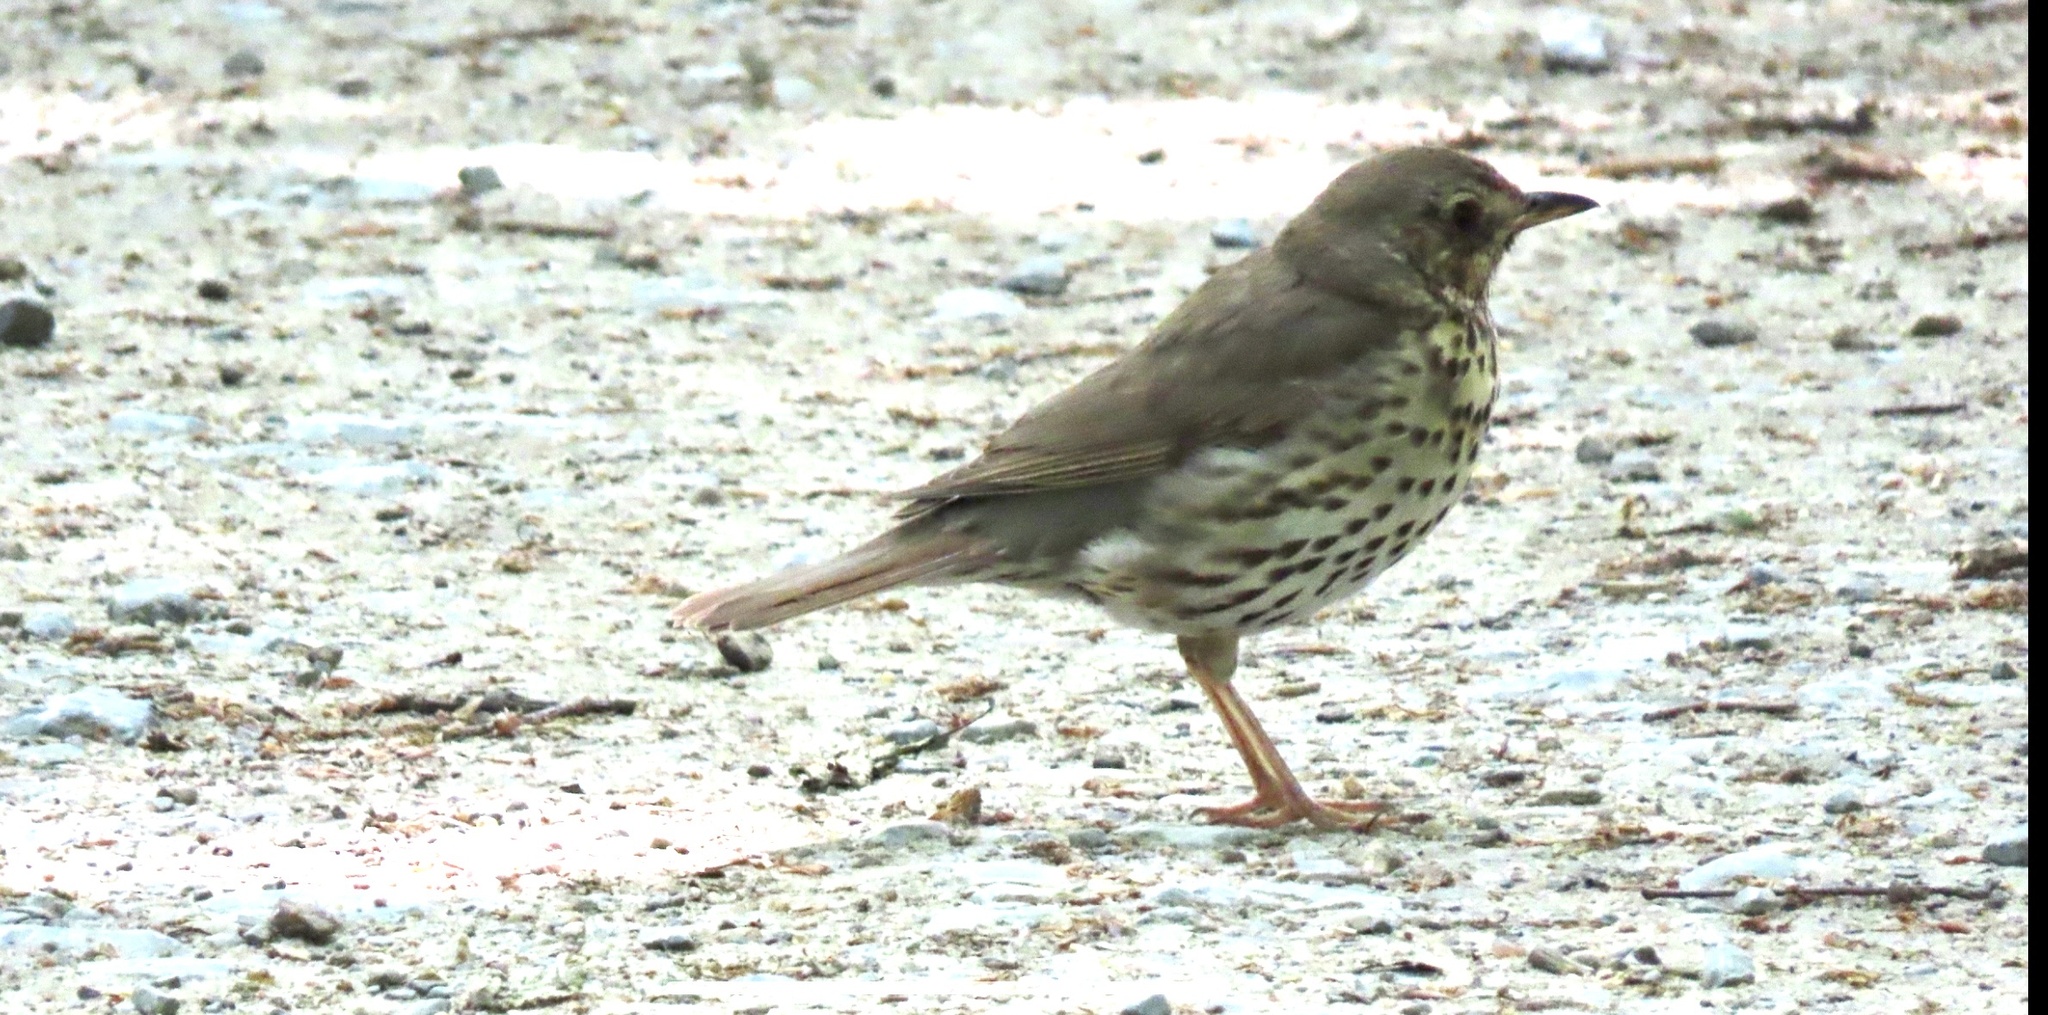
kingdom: Animalia
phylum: Chordata
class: Aves
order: Passeriformes
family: Turdidae
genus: Turdus
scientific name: Turdus philomelos
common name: Song thrush
